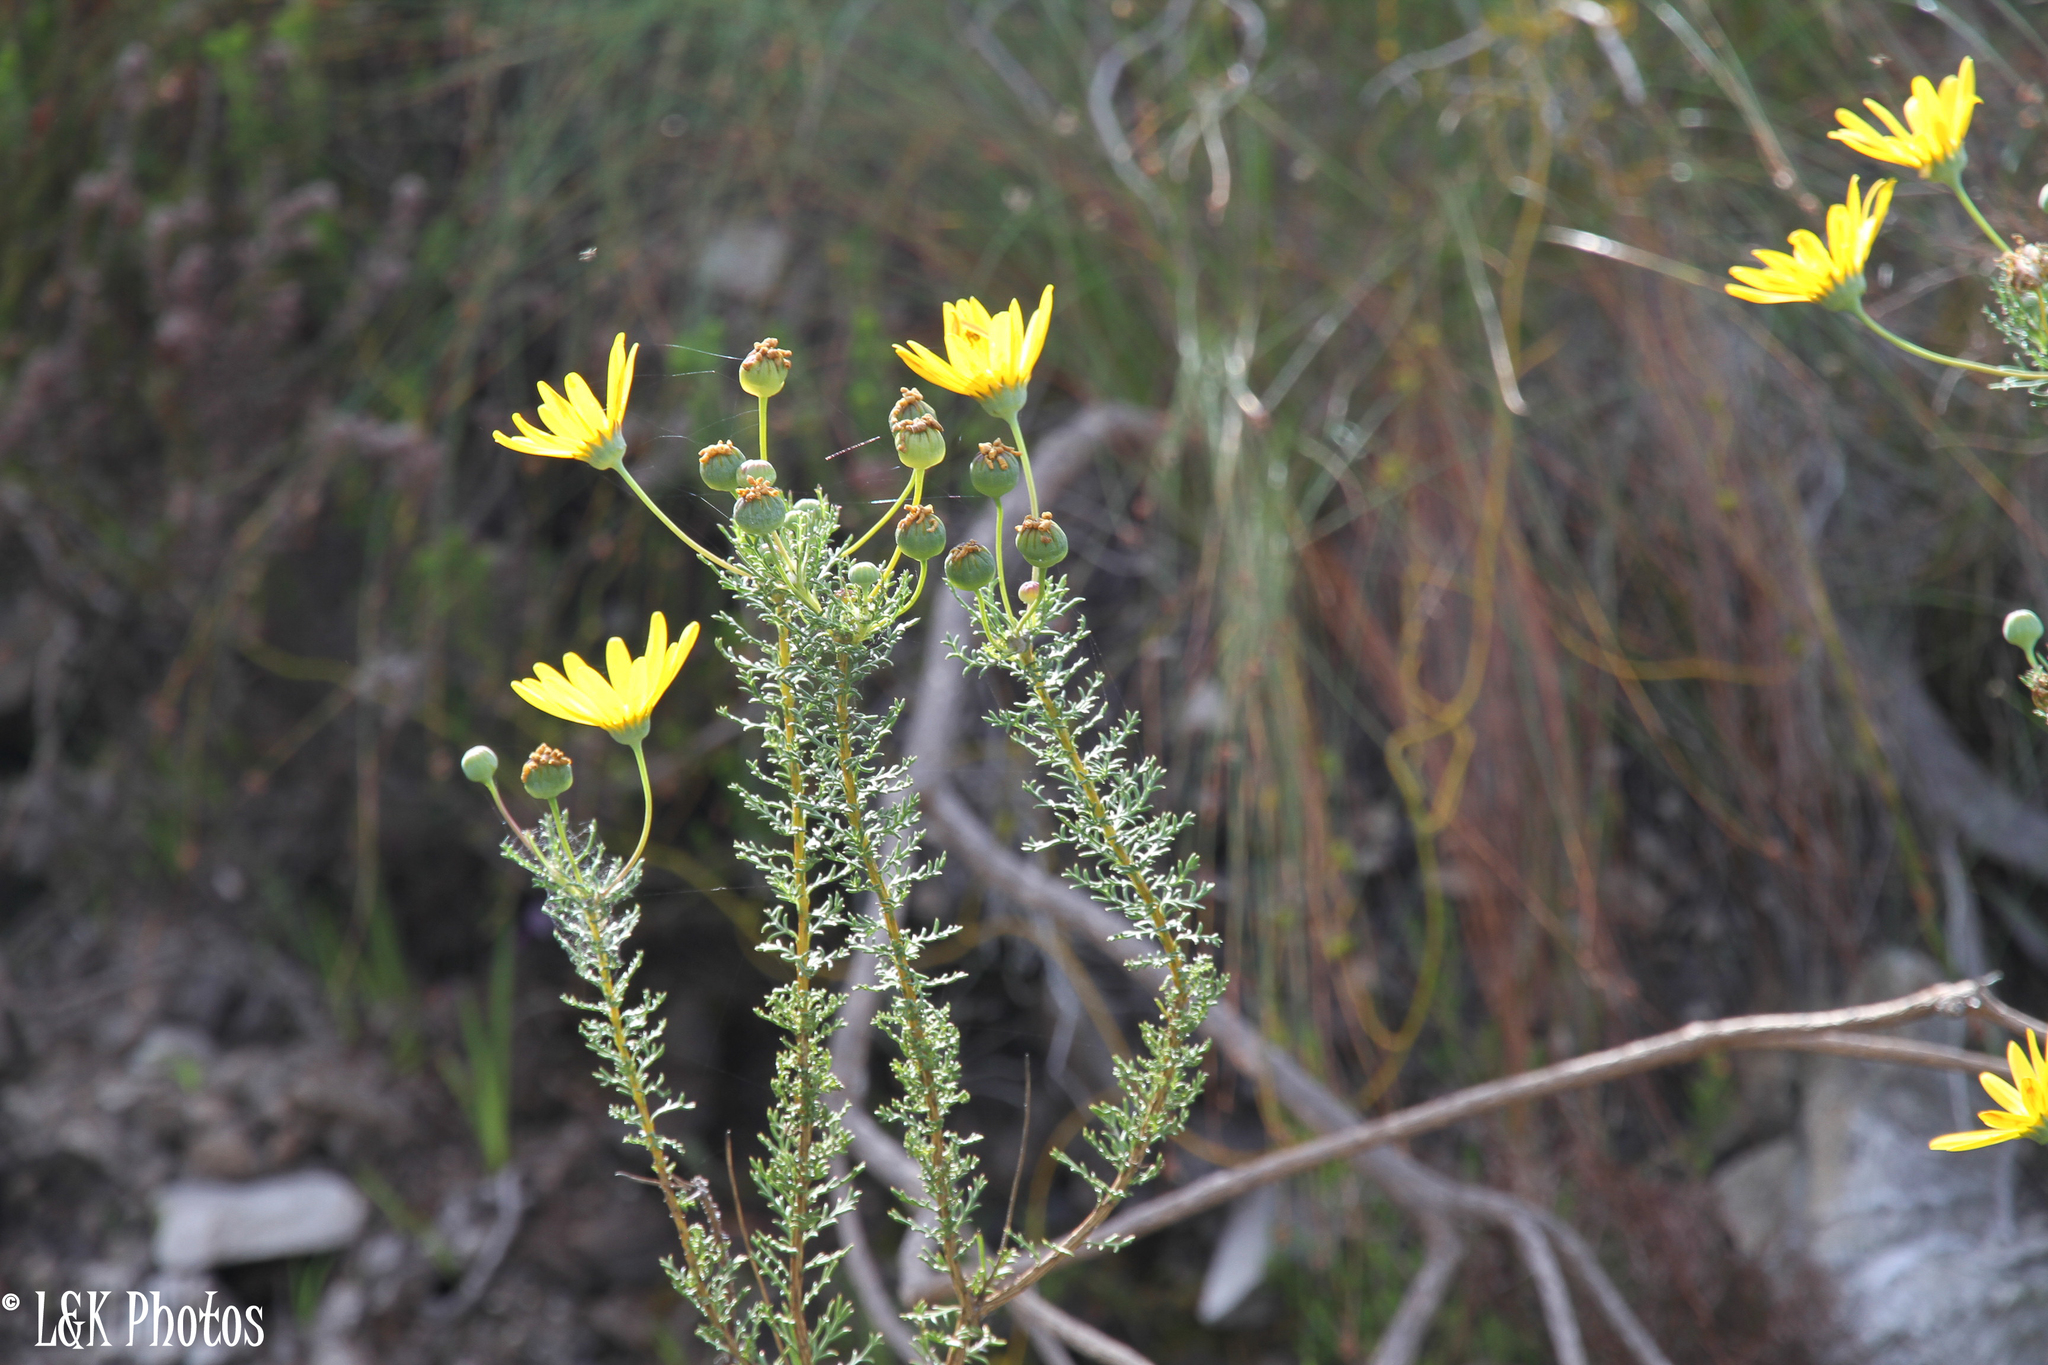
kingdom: Plantae
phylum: Tracheophyta
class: Magnoliopsida
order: Asterales
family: Asteraceae
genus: Euryops
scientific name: Euryops abrotanifolius
